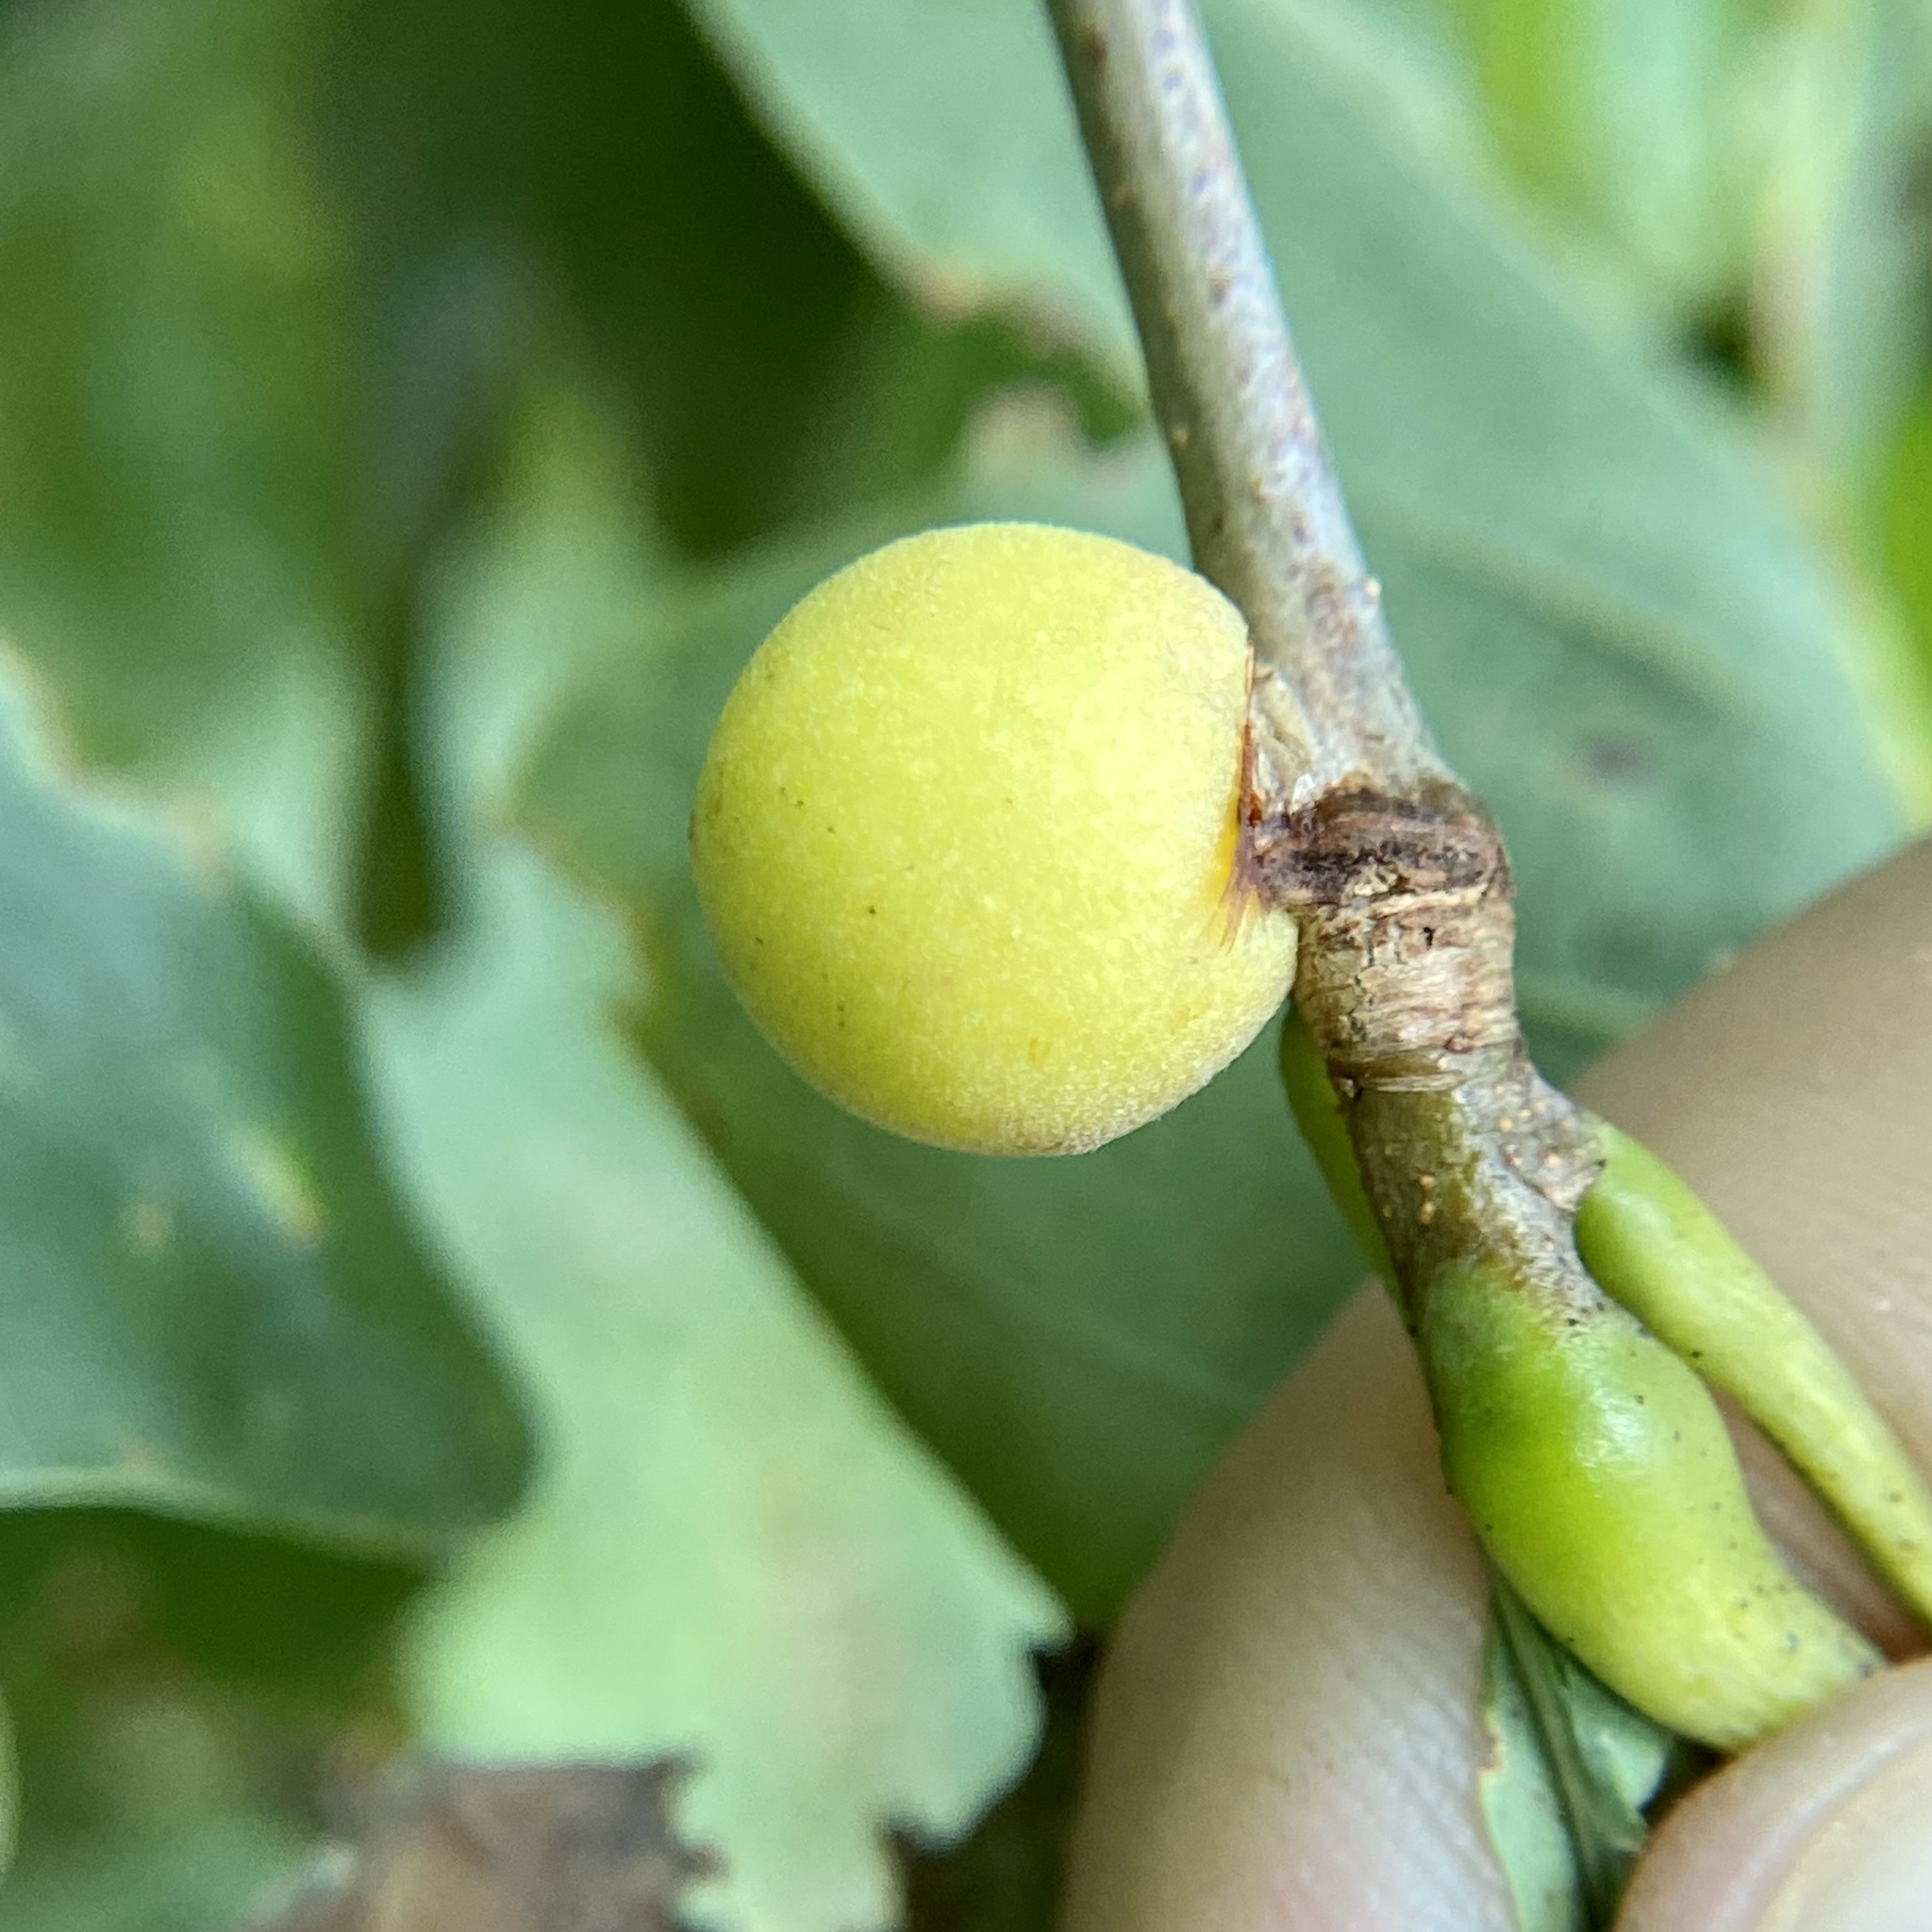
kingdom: Animalia
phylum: Arthropoda
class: Insecta
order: Hymenoptera
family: Cynipidae
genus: Disholcaspis
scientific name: Disholcaspis quercusglobulus
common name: Round bullet gall wasp
